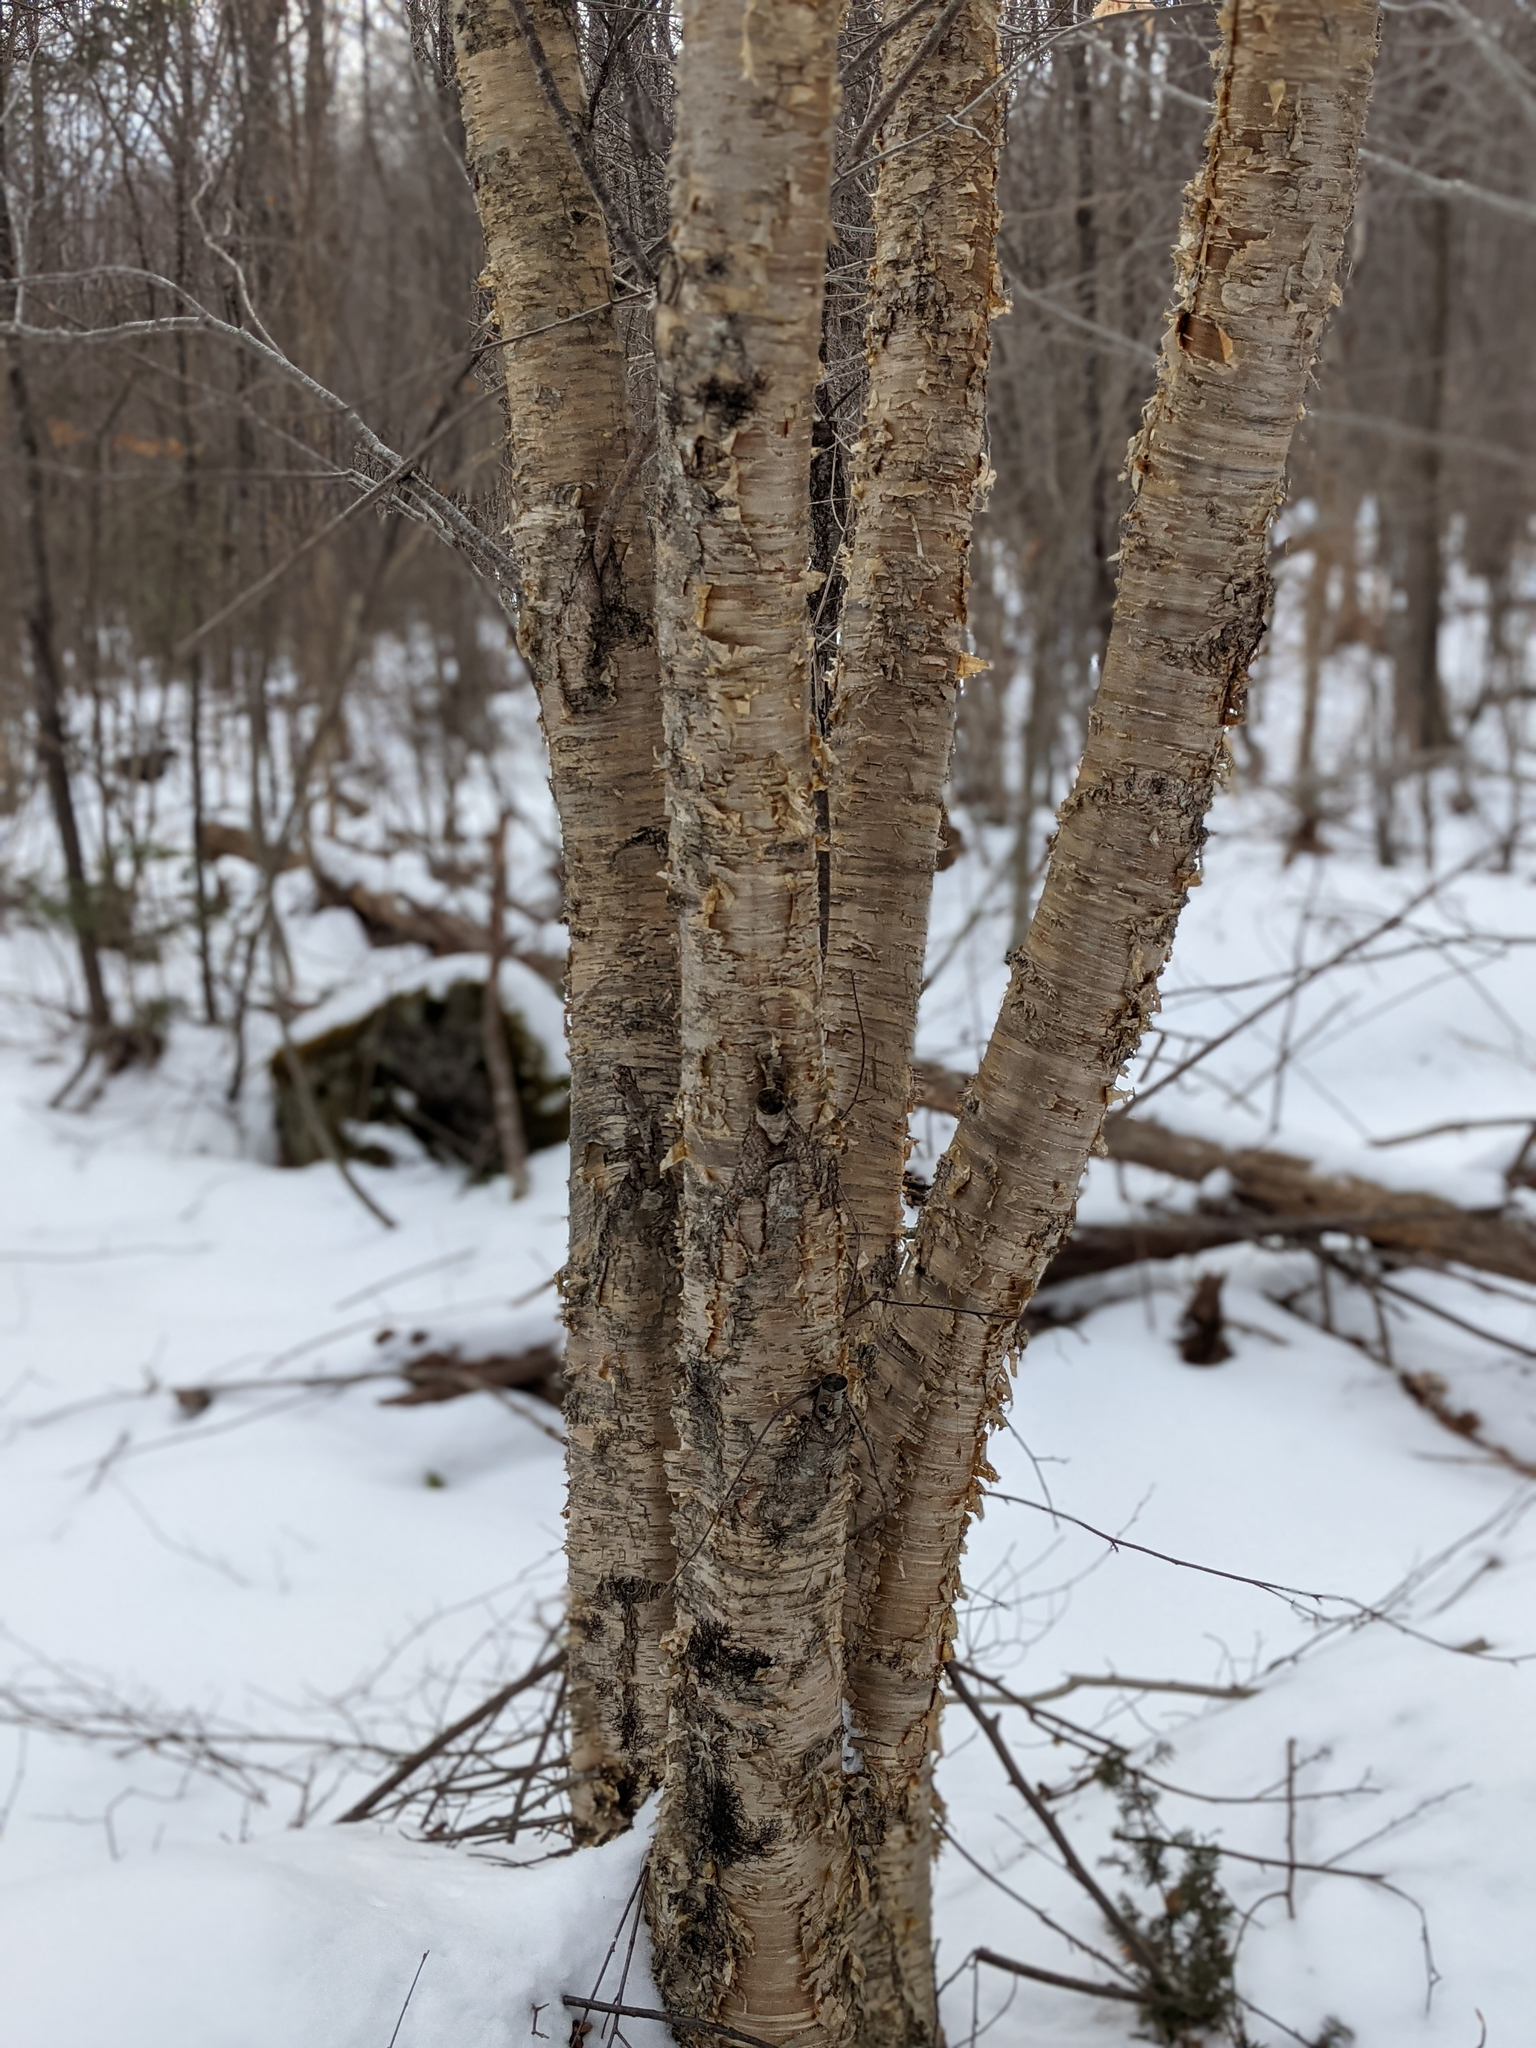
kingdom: Plantae
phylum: Tracheophyta
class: Magnoliopsida
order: Fagales
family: Betulaceae
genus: Betula
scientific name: Betula alleghaniensis
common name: Yellow birch
